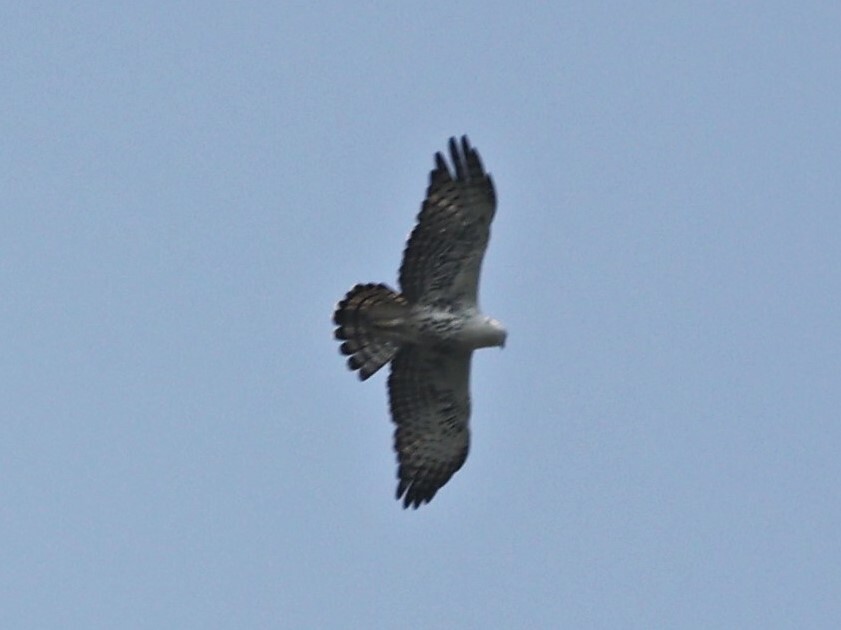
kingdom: Animalia
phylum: Chordata
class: Aves
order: Accipitriformes
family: Accipitridae
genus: Hieraaetus
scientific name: Hieraaetus ayresii
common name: Ayres's hawk-eagle
